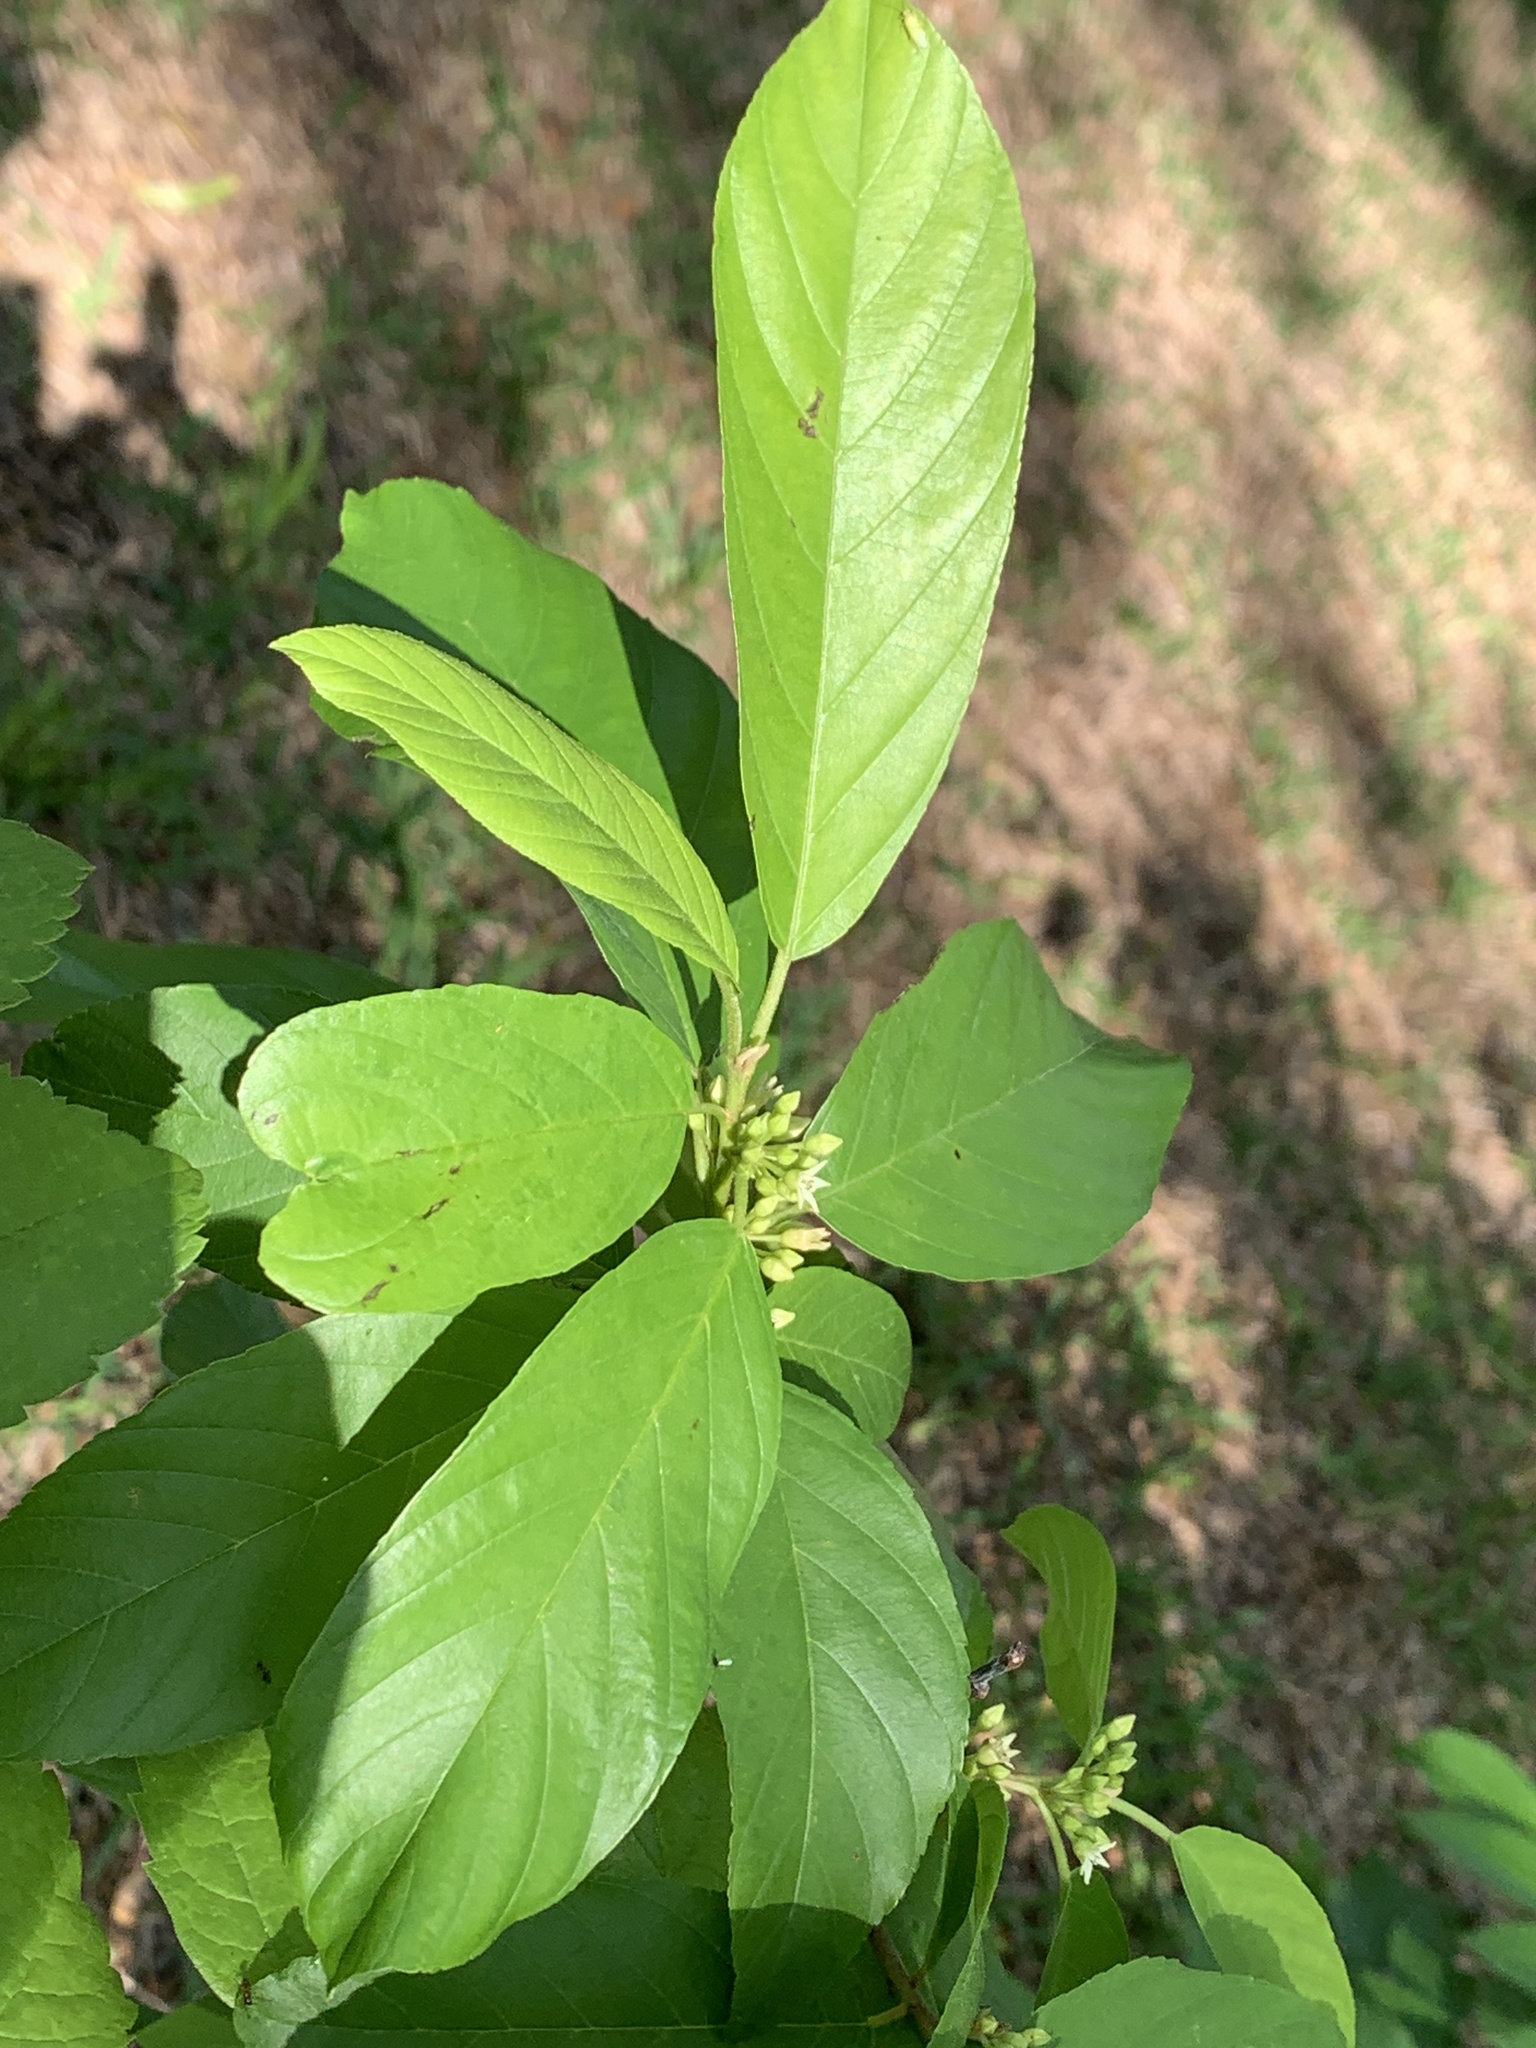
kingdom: Plantae
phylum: Tracheophyta
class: Magnoliopsida
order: Rosales
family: Rhamnaceae
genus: Frangula
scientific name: Frangula caroliniana
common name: Carolina buckthorn
